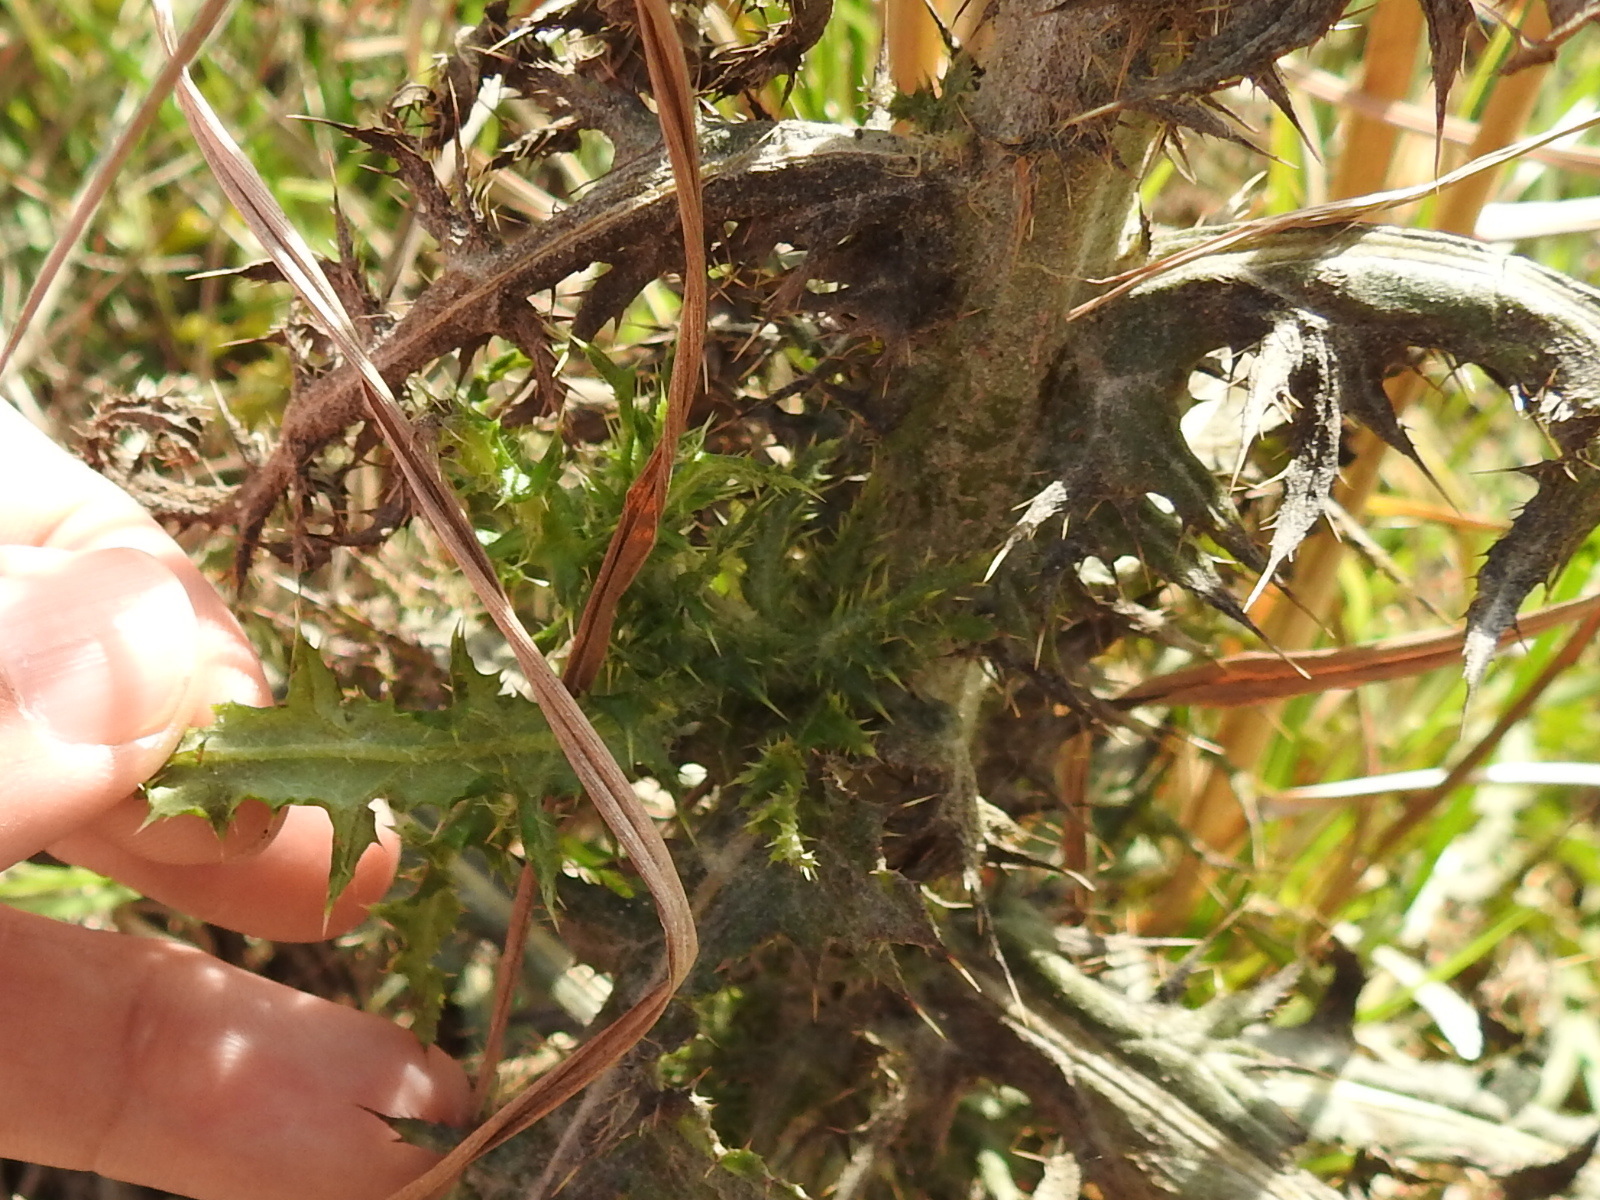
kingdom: Plantae
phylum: Tracheophyta
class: Magnoliopsida
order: Asterales
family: Asteraceae
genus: Cirsium
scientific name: Cirsium nuttalii
